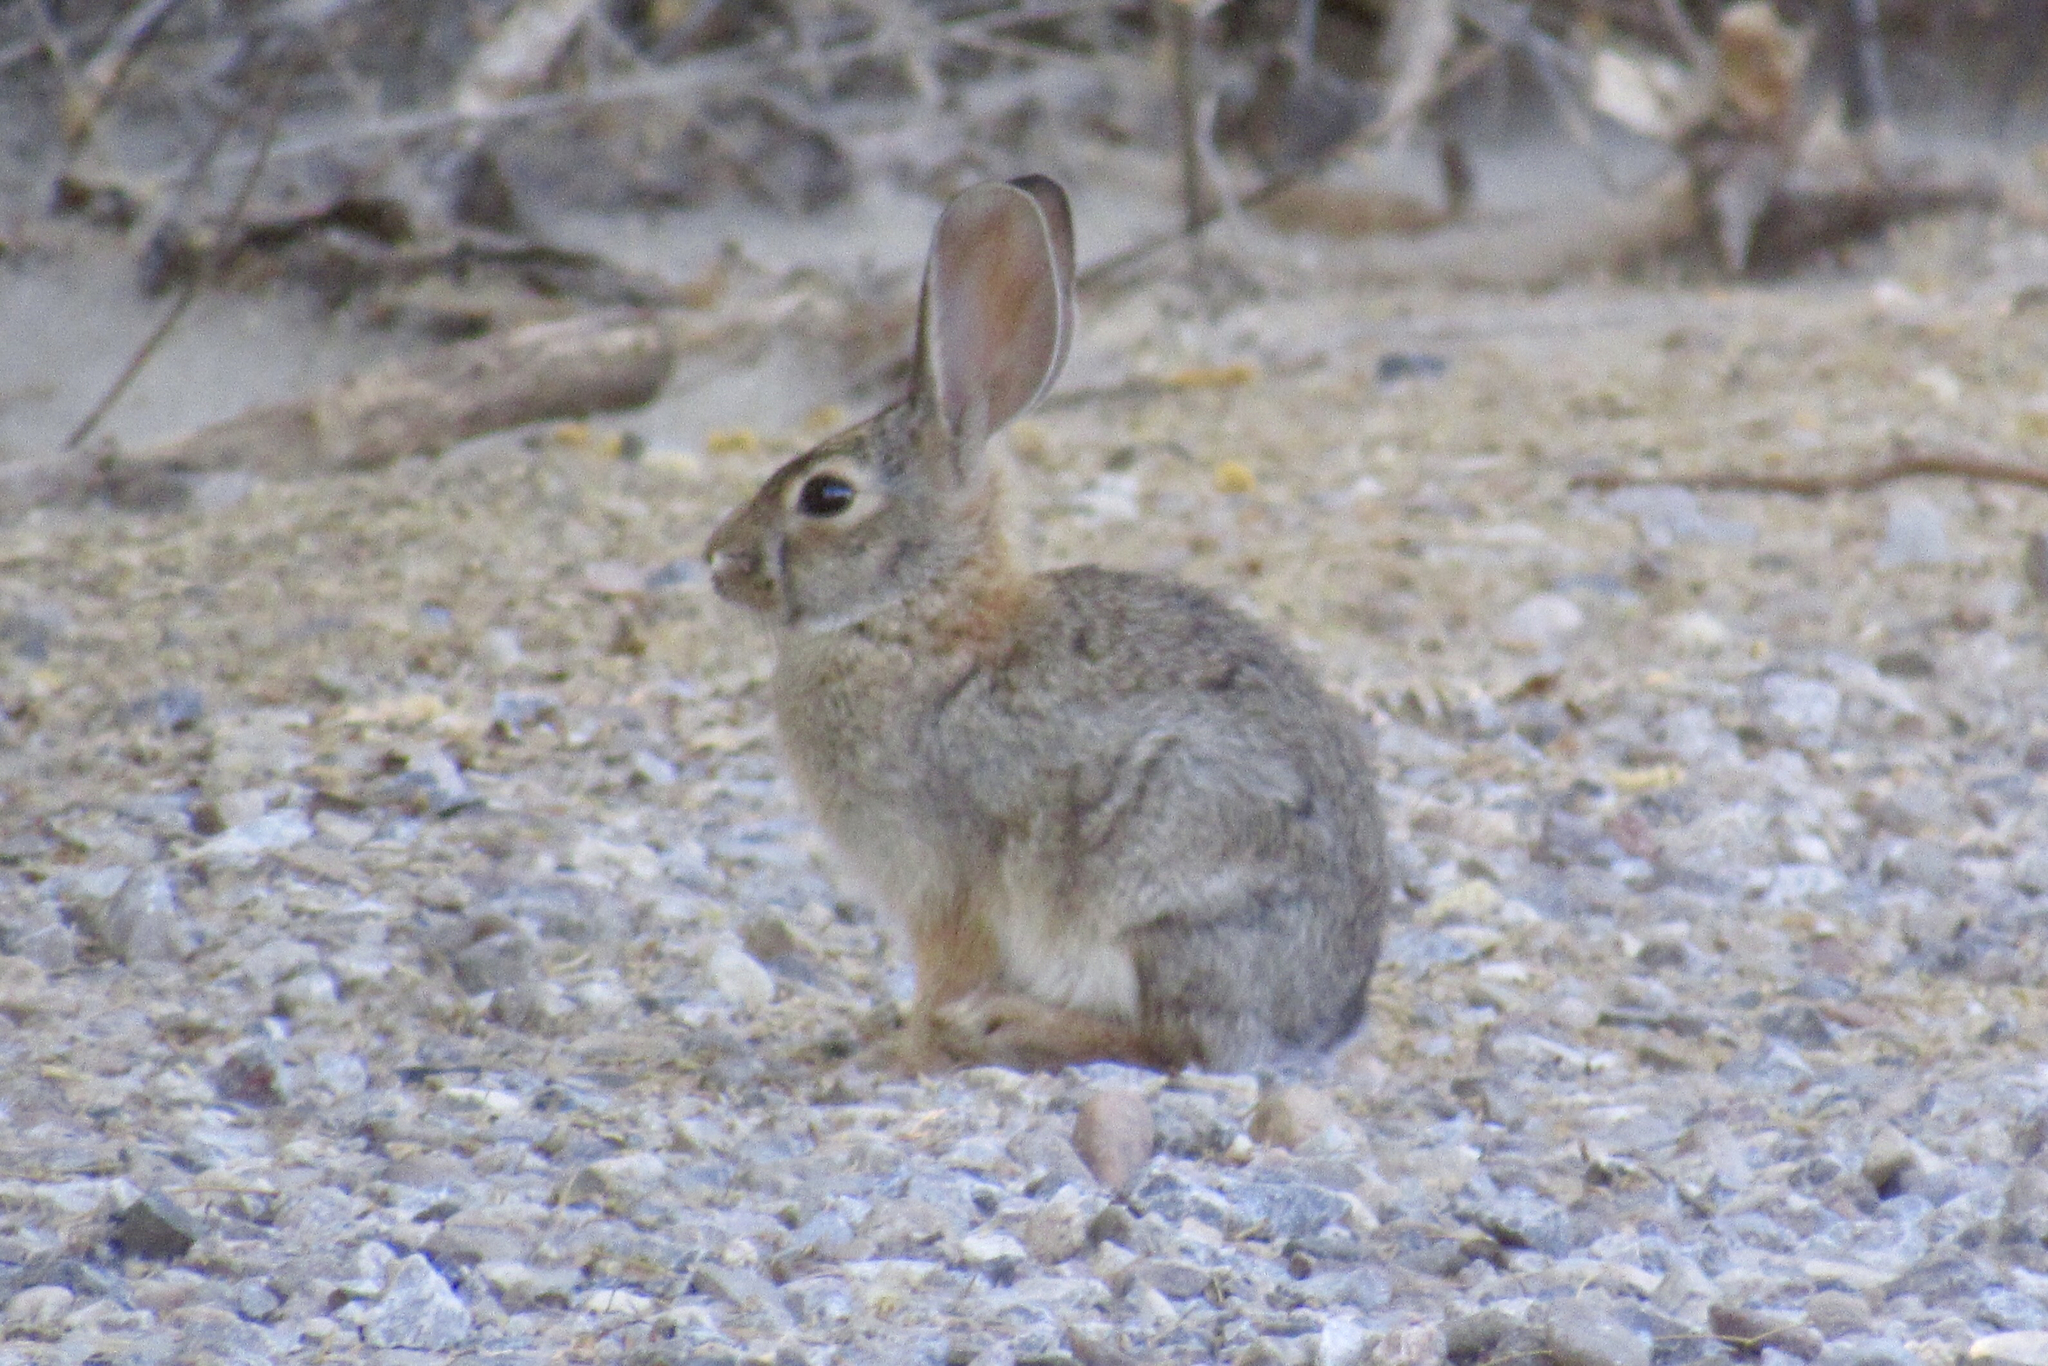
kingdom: Animalia
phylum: Chordata
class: Mammalia
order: Lagomorpha
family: Leporidae
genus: Sylvilagus
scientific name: Sylvilagus audubonii
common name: Desert cottontail
